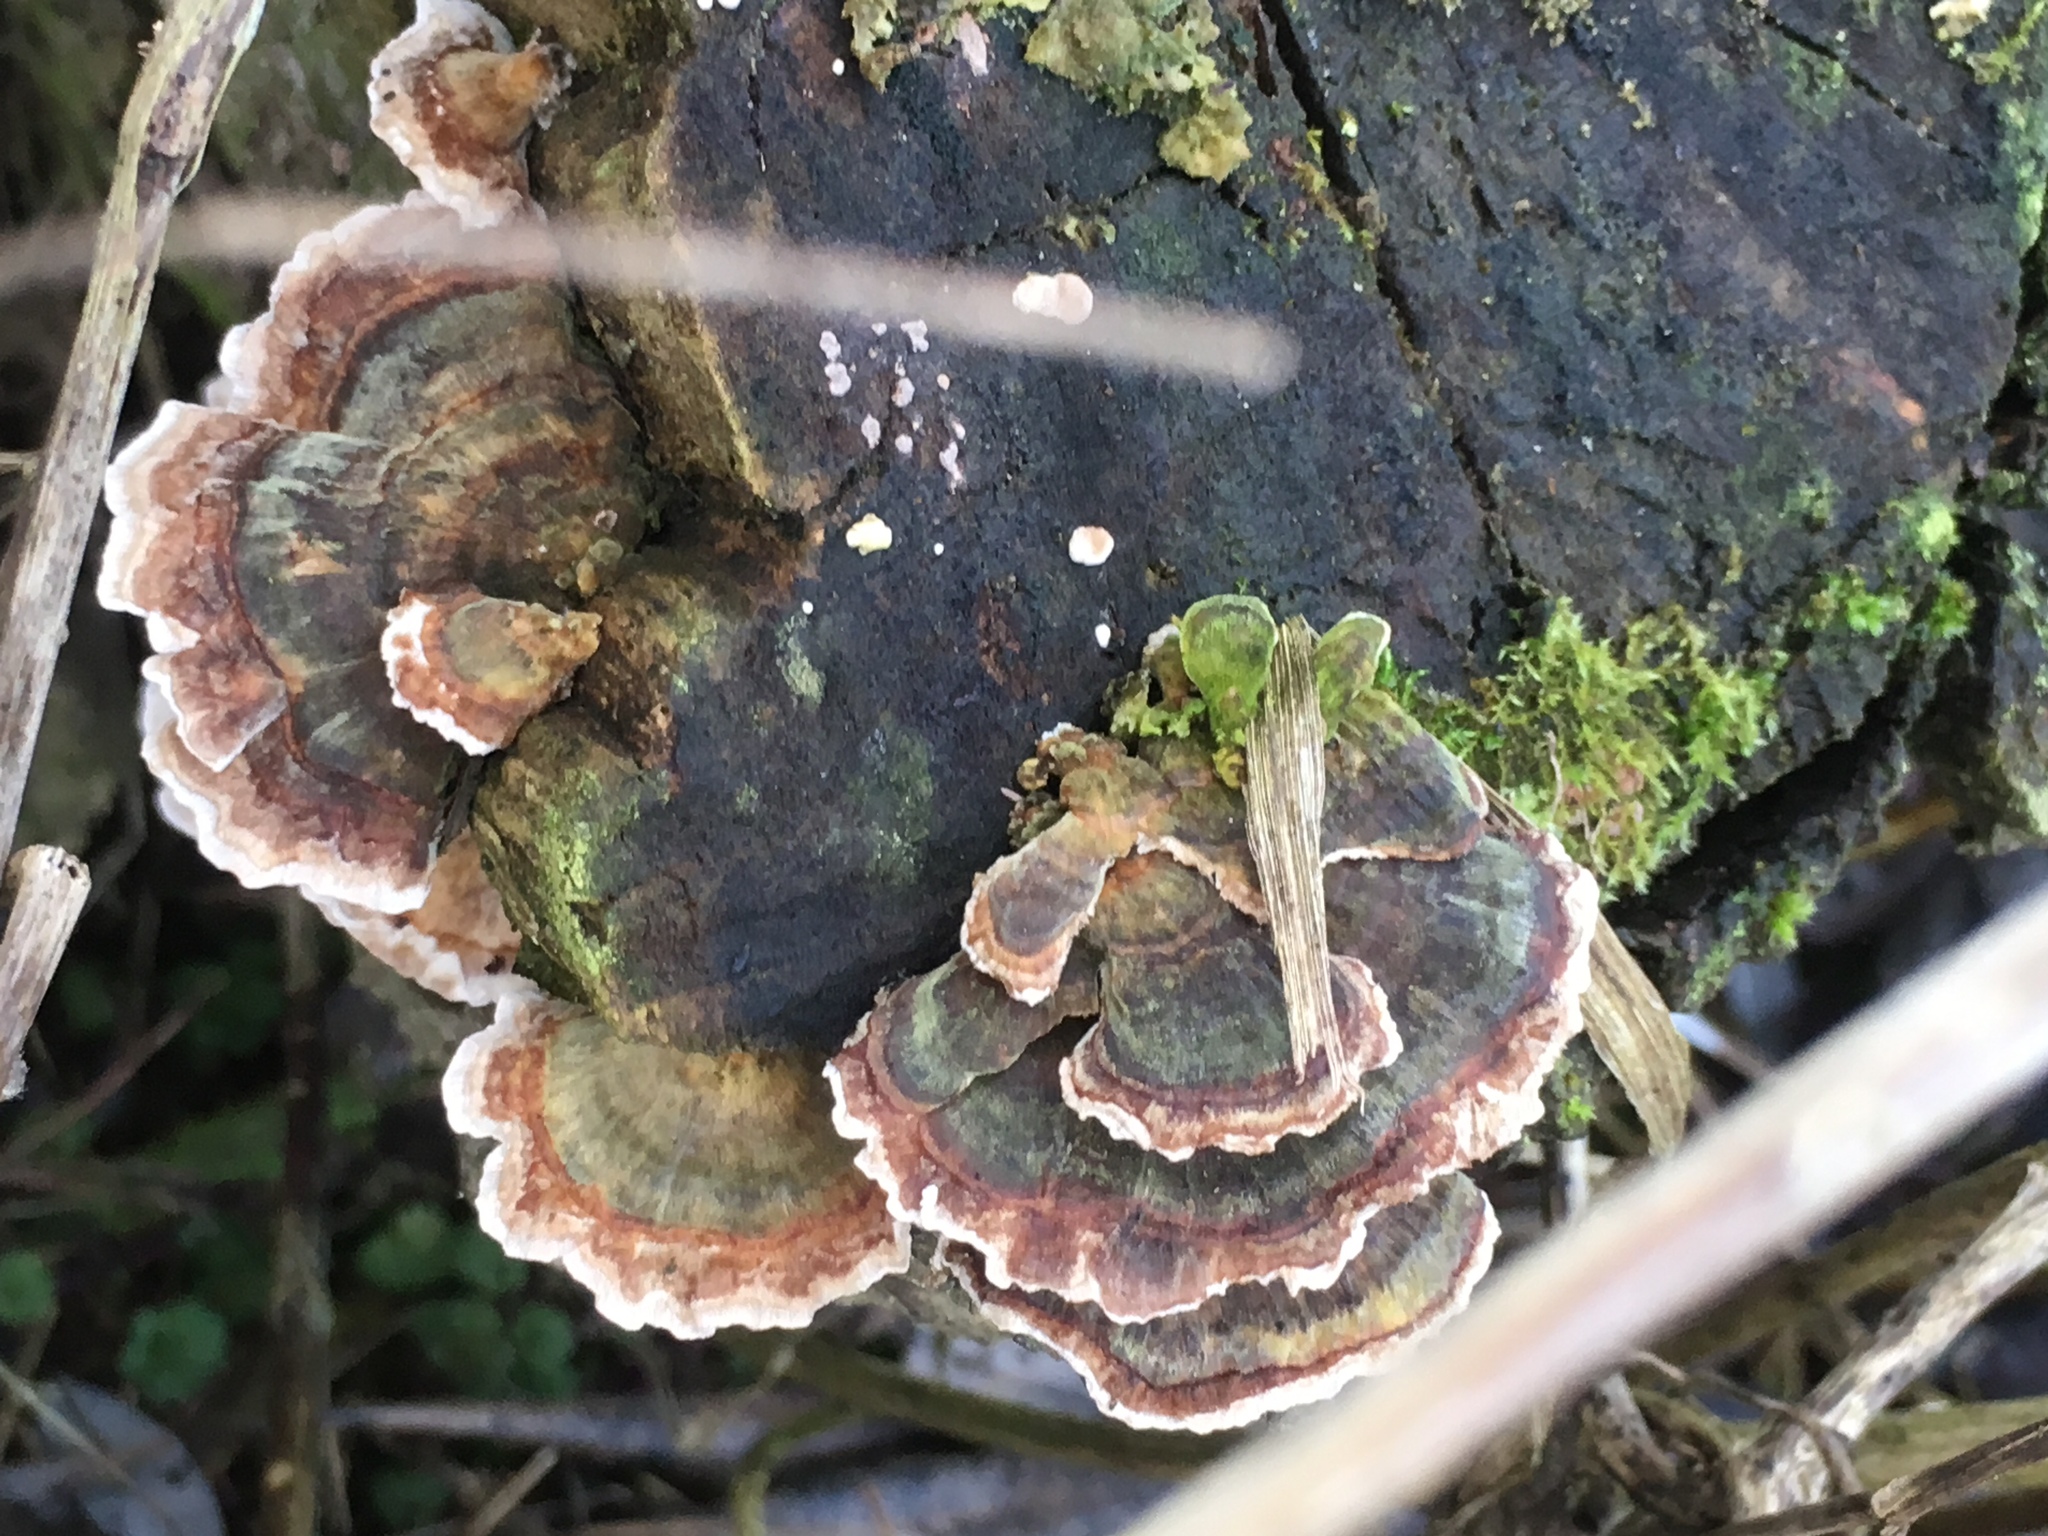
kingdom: Fungi
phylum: Basidiomycota
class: Agaricomycetes
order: Polyporales
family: Polyporaceae
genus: Trametes
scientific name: Trametes versicolor
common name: Turkeytail
